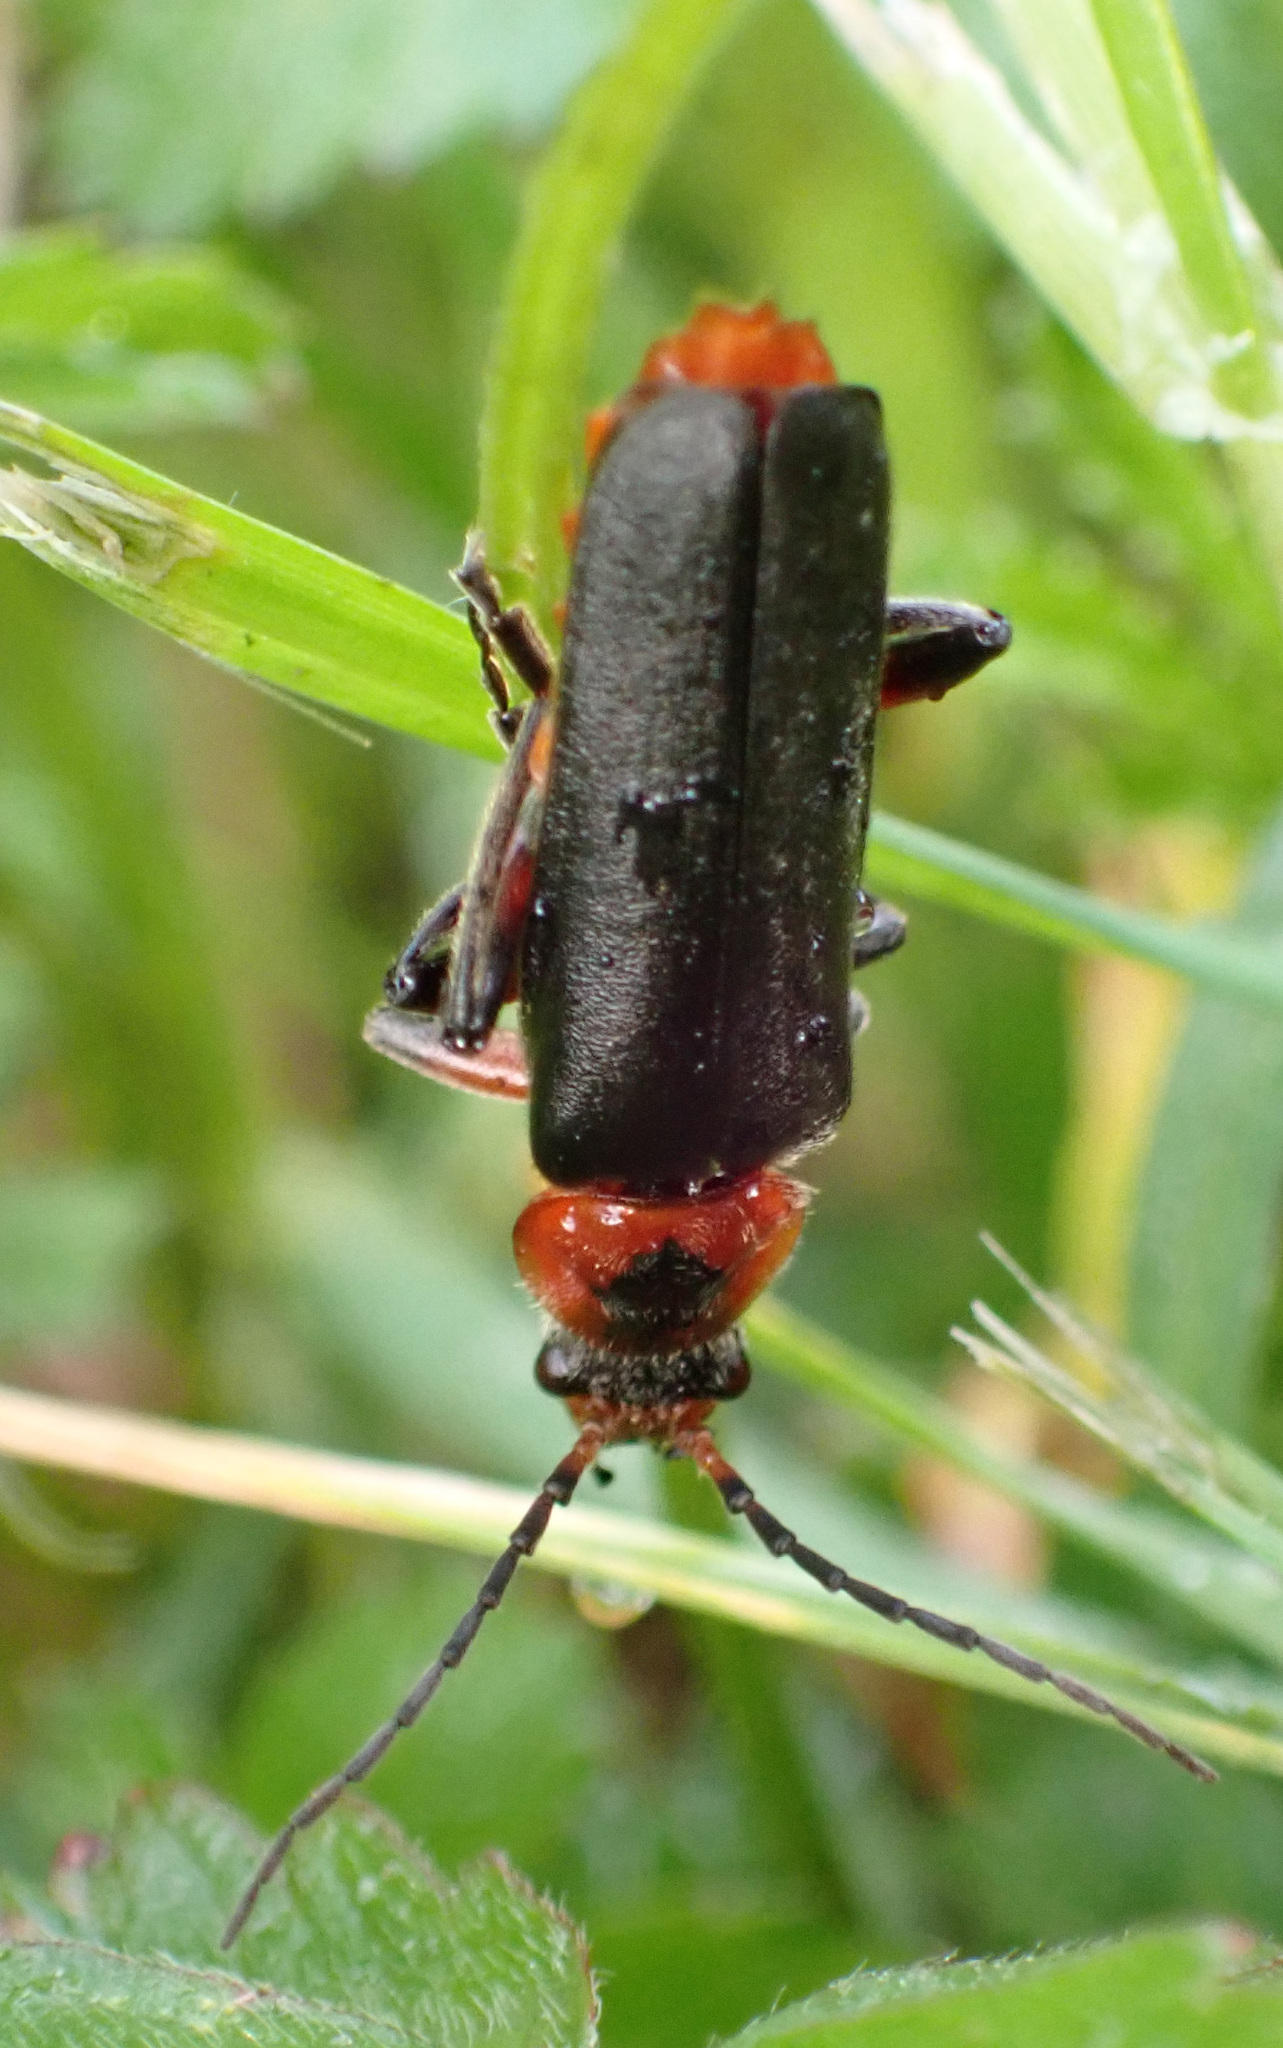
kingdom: Animalia
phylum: Arthropoda
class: Insecta
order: Coleoptera
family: Cantharidae
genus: Cantharis
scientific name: Cantharis rustica
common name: Soldier beetle
